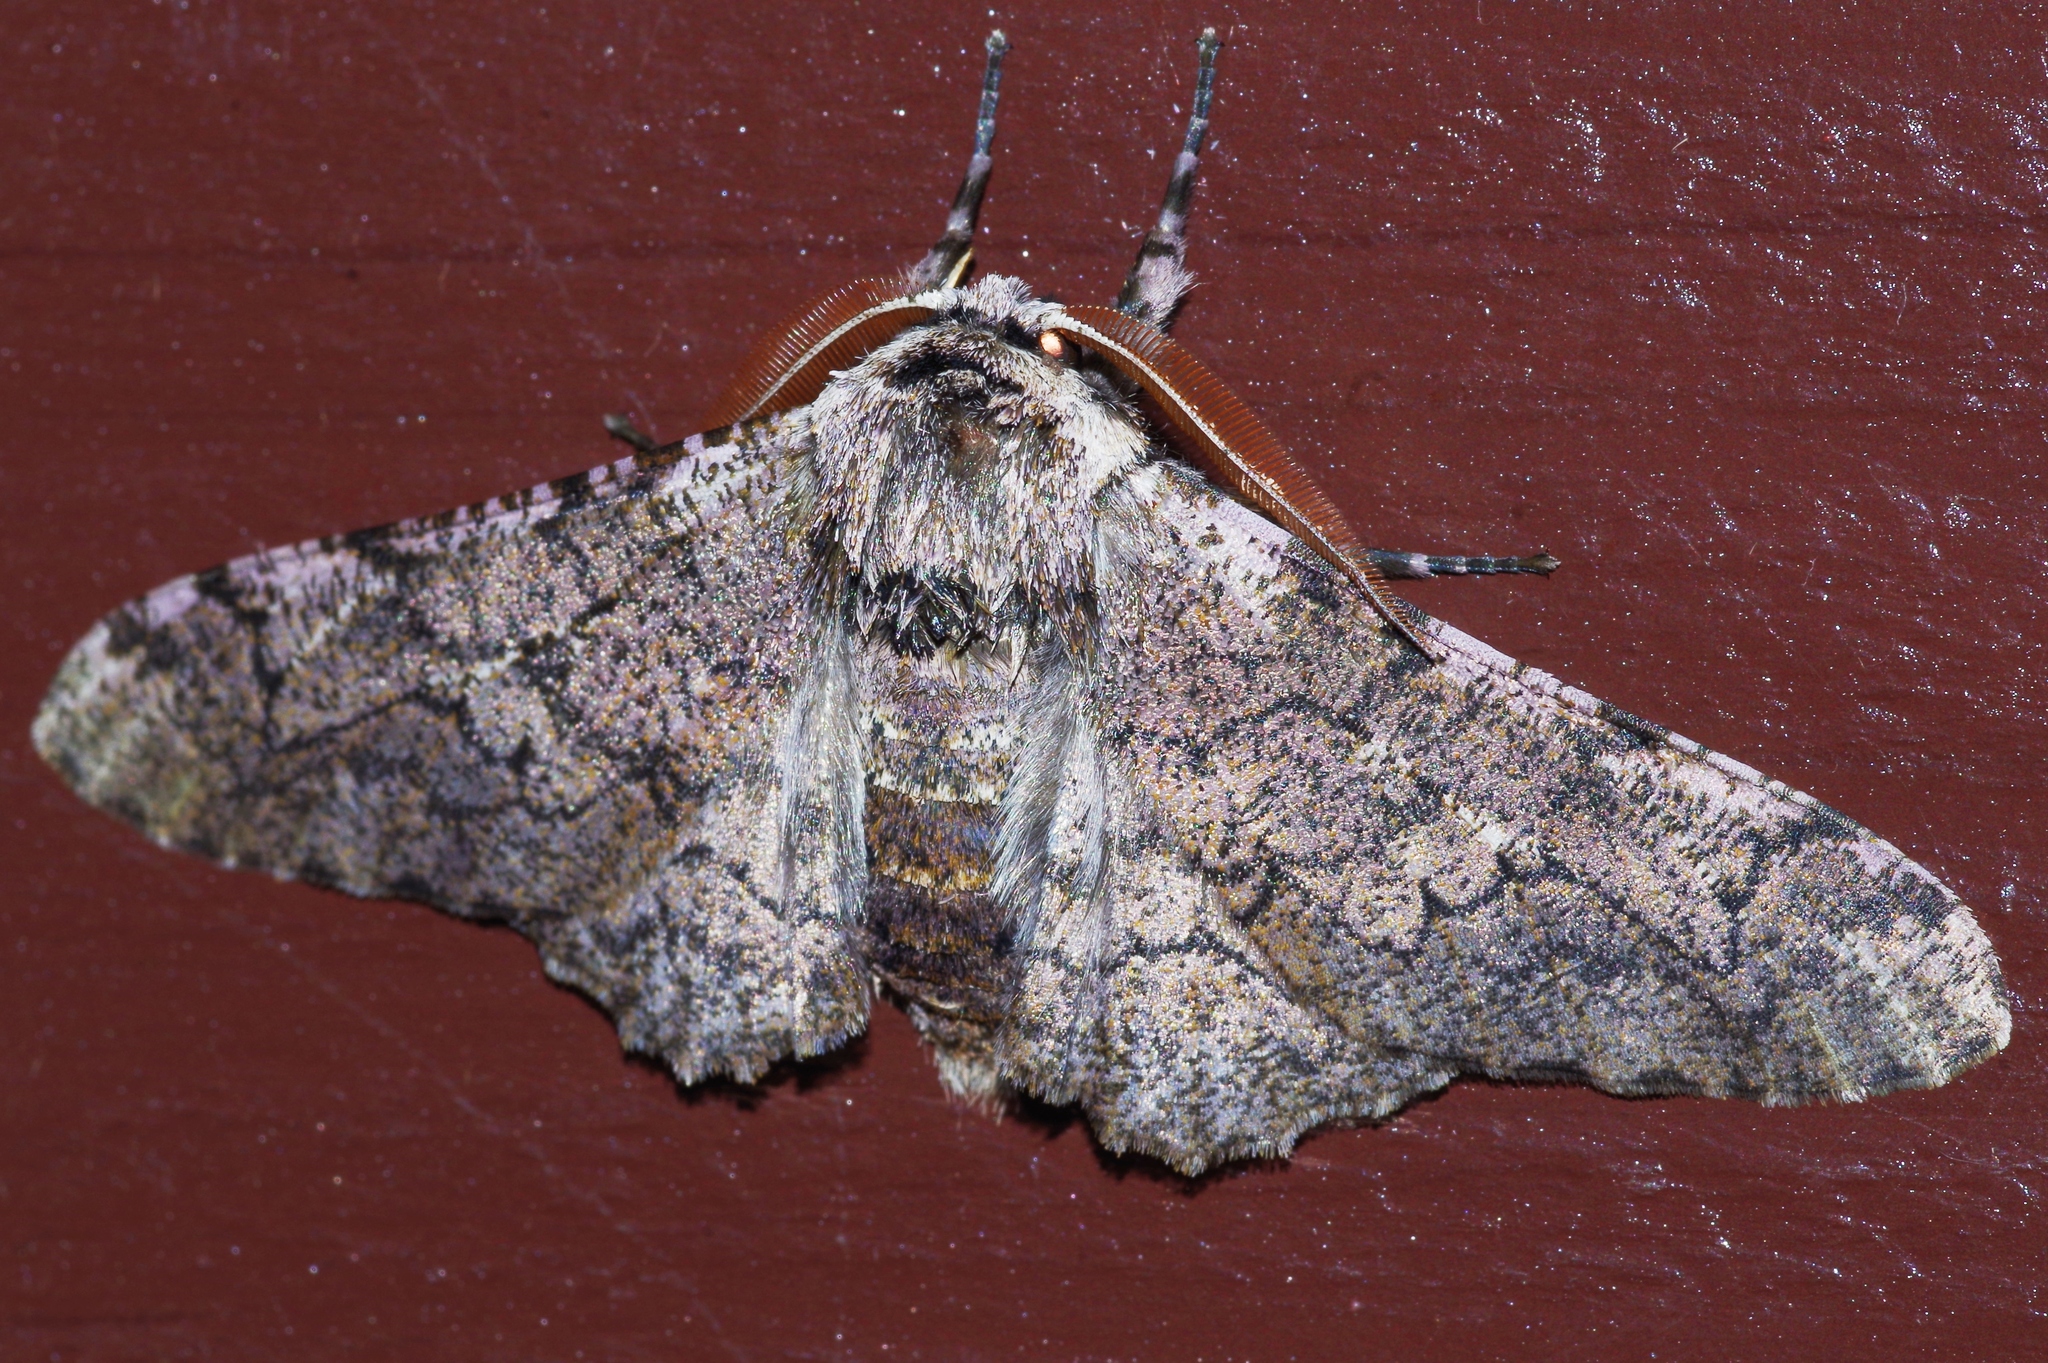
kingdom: Animalia
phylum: Arthropoda
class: Insecta
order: Lepidoptera
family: Geometridae
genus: Biston
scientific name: Biston robustum
